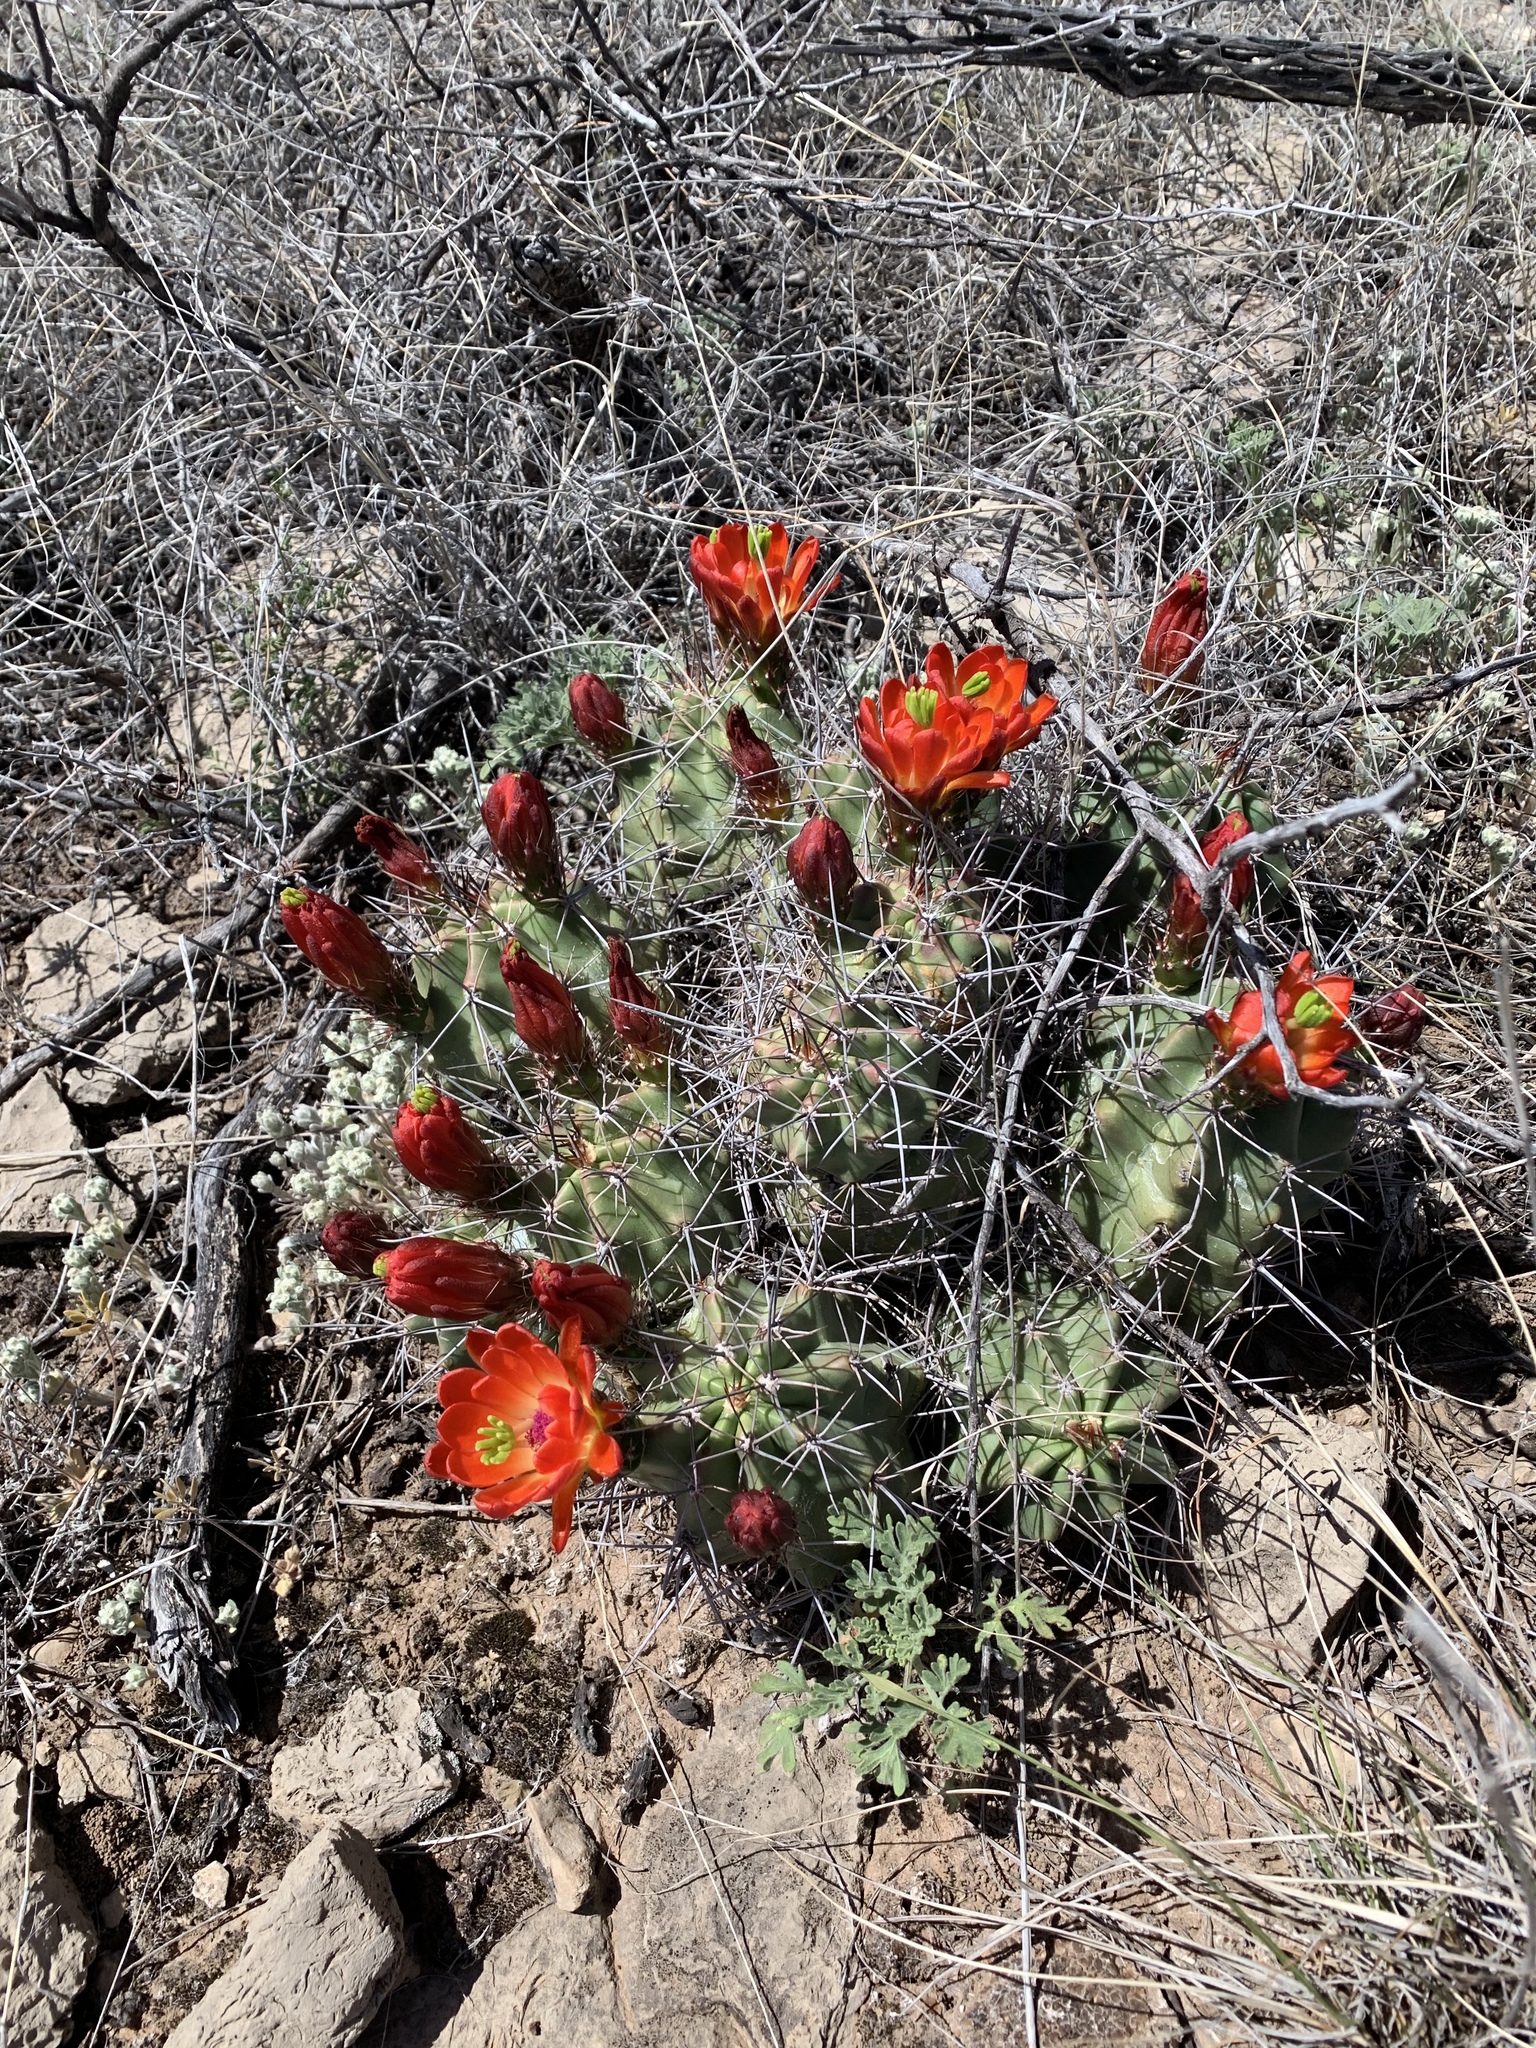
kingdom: Plantae
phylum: Tracheophyta
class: Magnoliopsida
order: Caryophyllales
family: Cactaceae
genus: Echinocereus
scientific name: Echinocereus coccineus
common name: Scarlet hedgehog cactus
